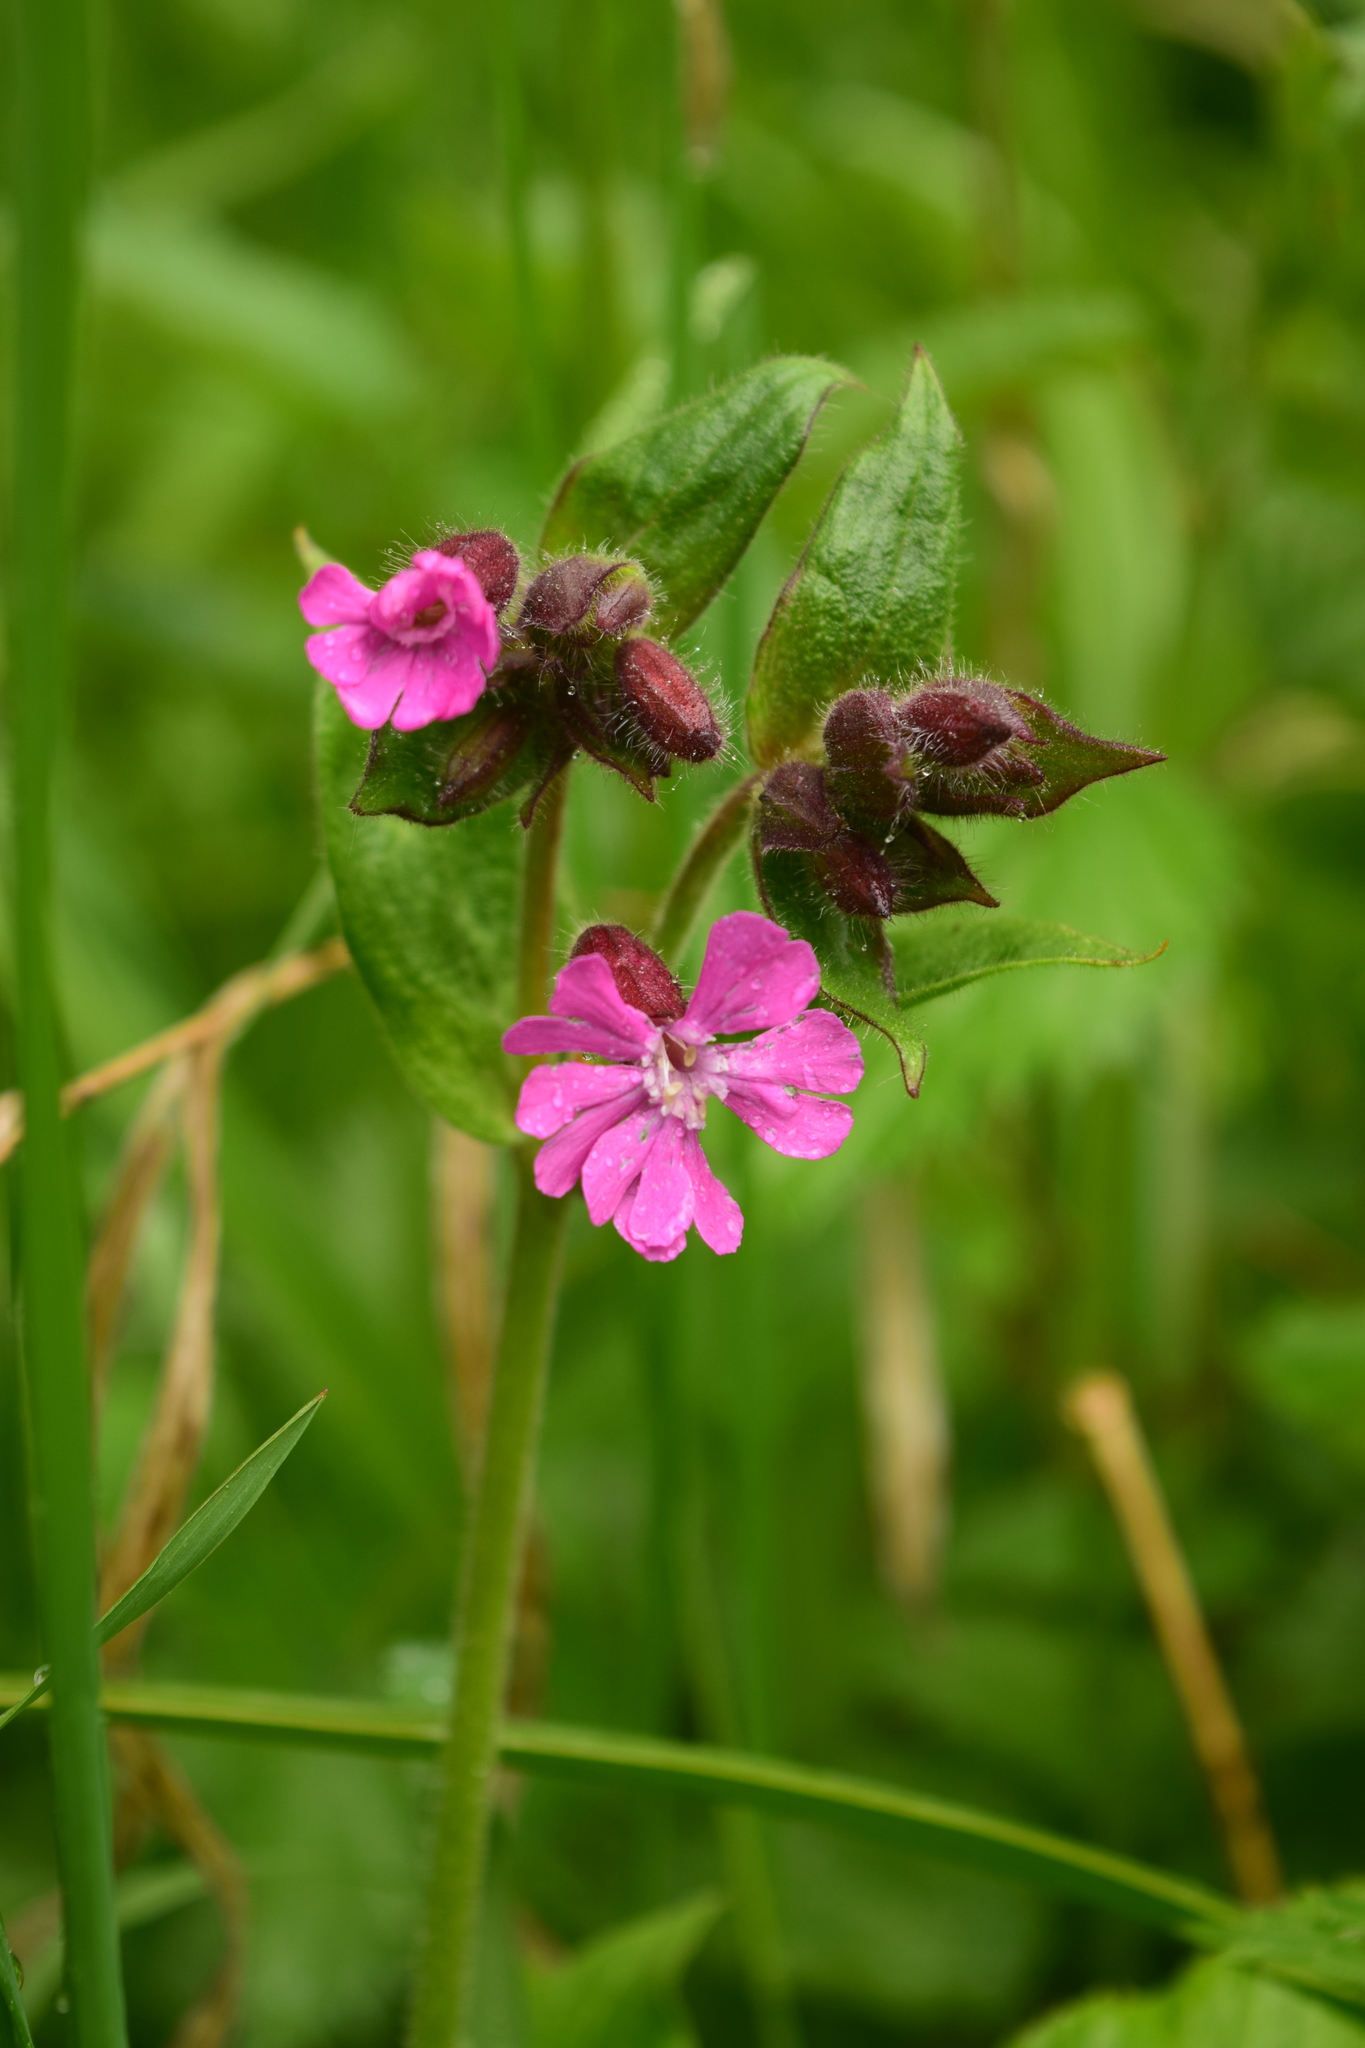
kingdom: Plantae
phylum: Tracheophyta
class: Magnoliopsida
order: Caryophyllales
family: Caryophyllaceae
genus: Silene
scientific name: Silene dioica
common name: Red campion
